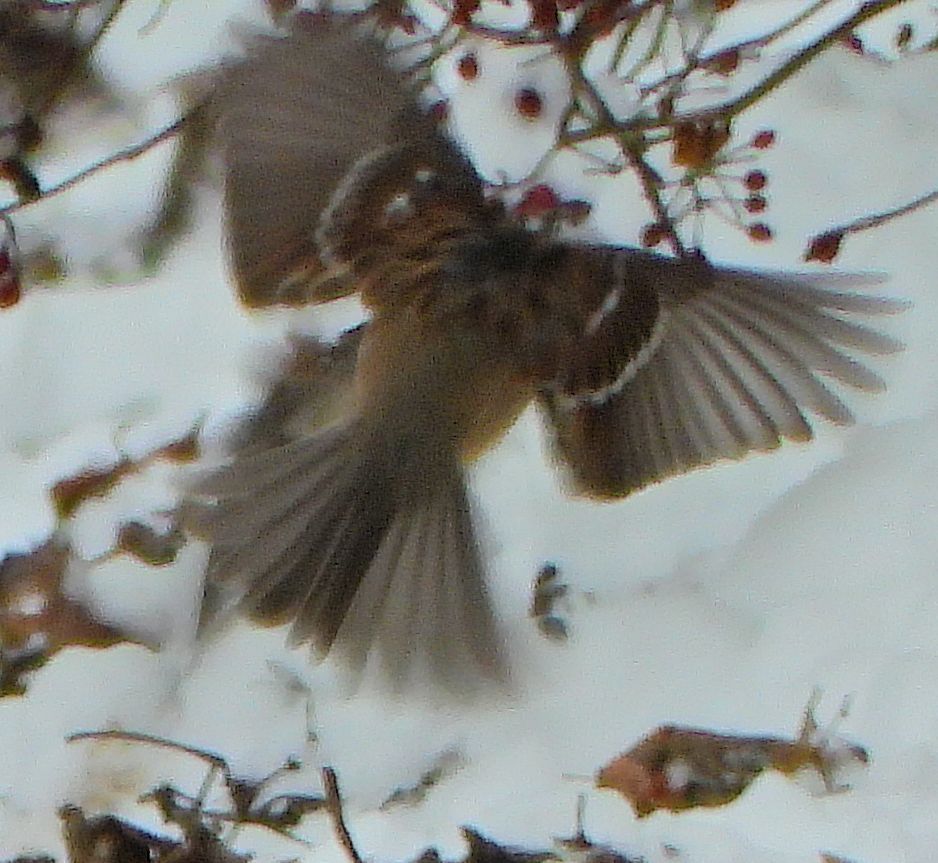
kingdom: Animalia
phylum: Chordata
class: Aves
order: Passeriformes
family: Passerellidae
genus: Spizelloides
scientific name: Spizelloides arborea
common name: American tree sparrow
